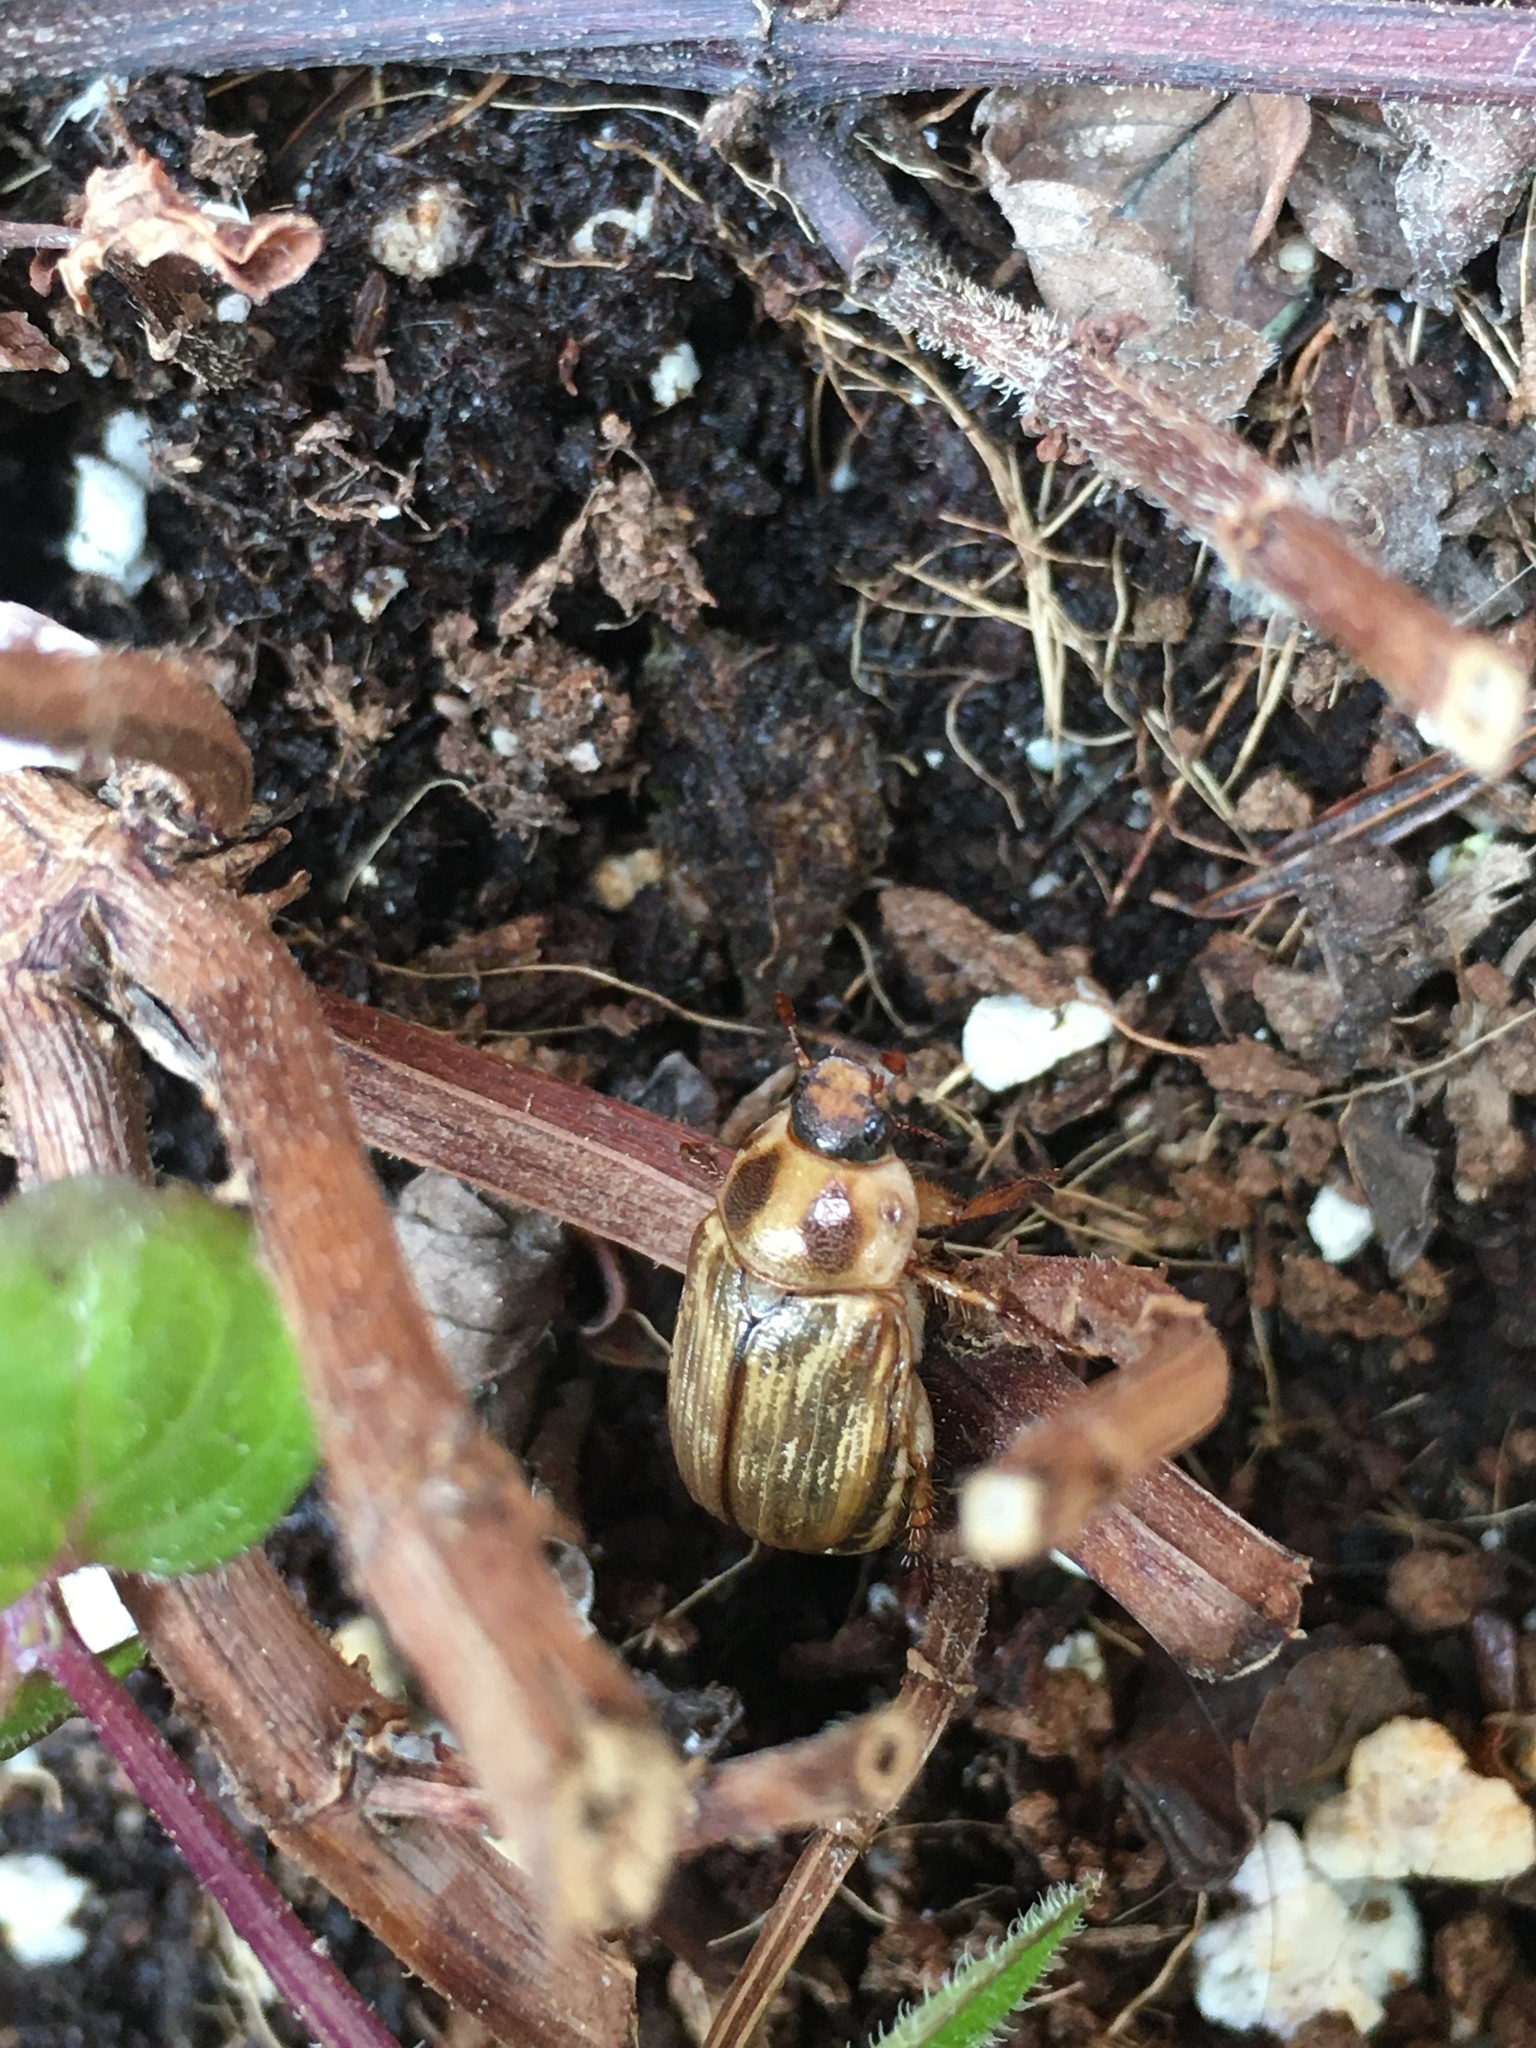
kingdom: Animalia
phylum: Arthropoda
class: Insecta
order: Coleoptera
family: Scarabaeidae
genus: Exomala
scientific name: Exomala orientalis
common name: Oriental beetle
